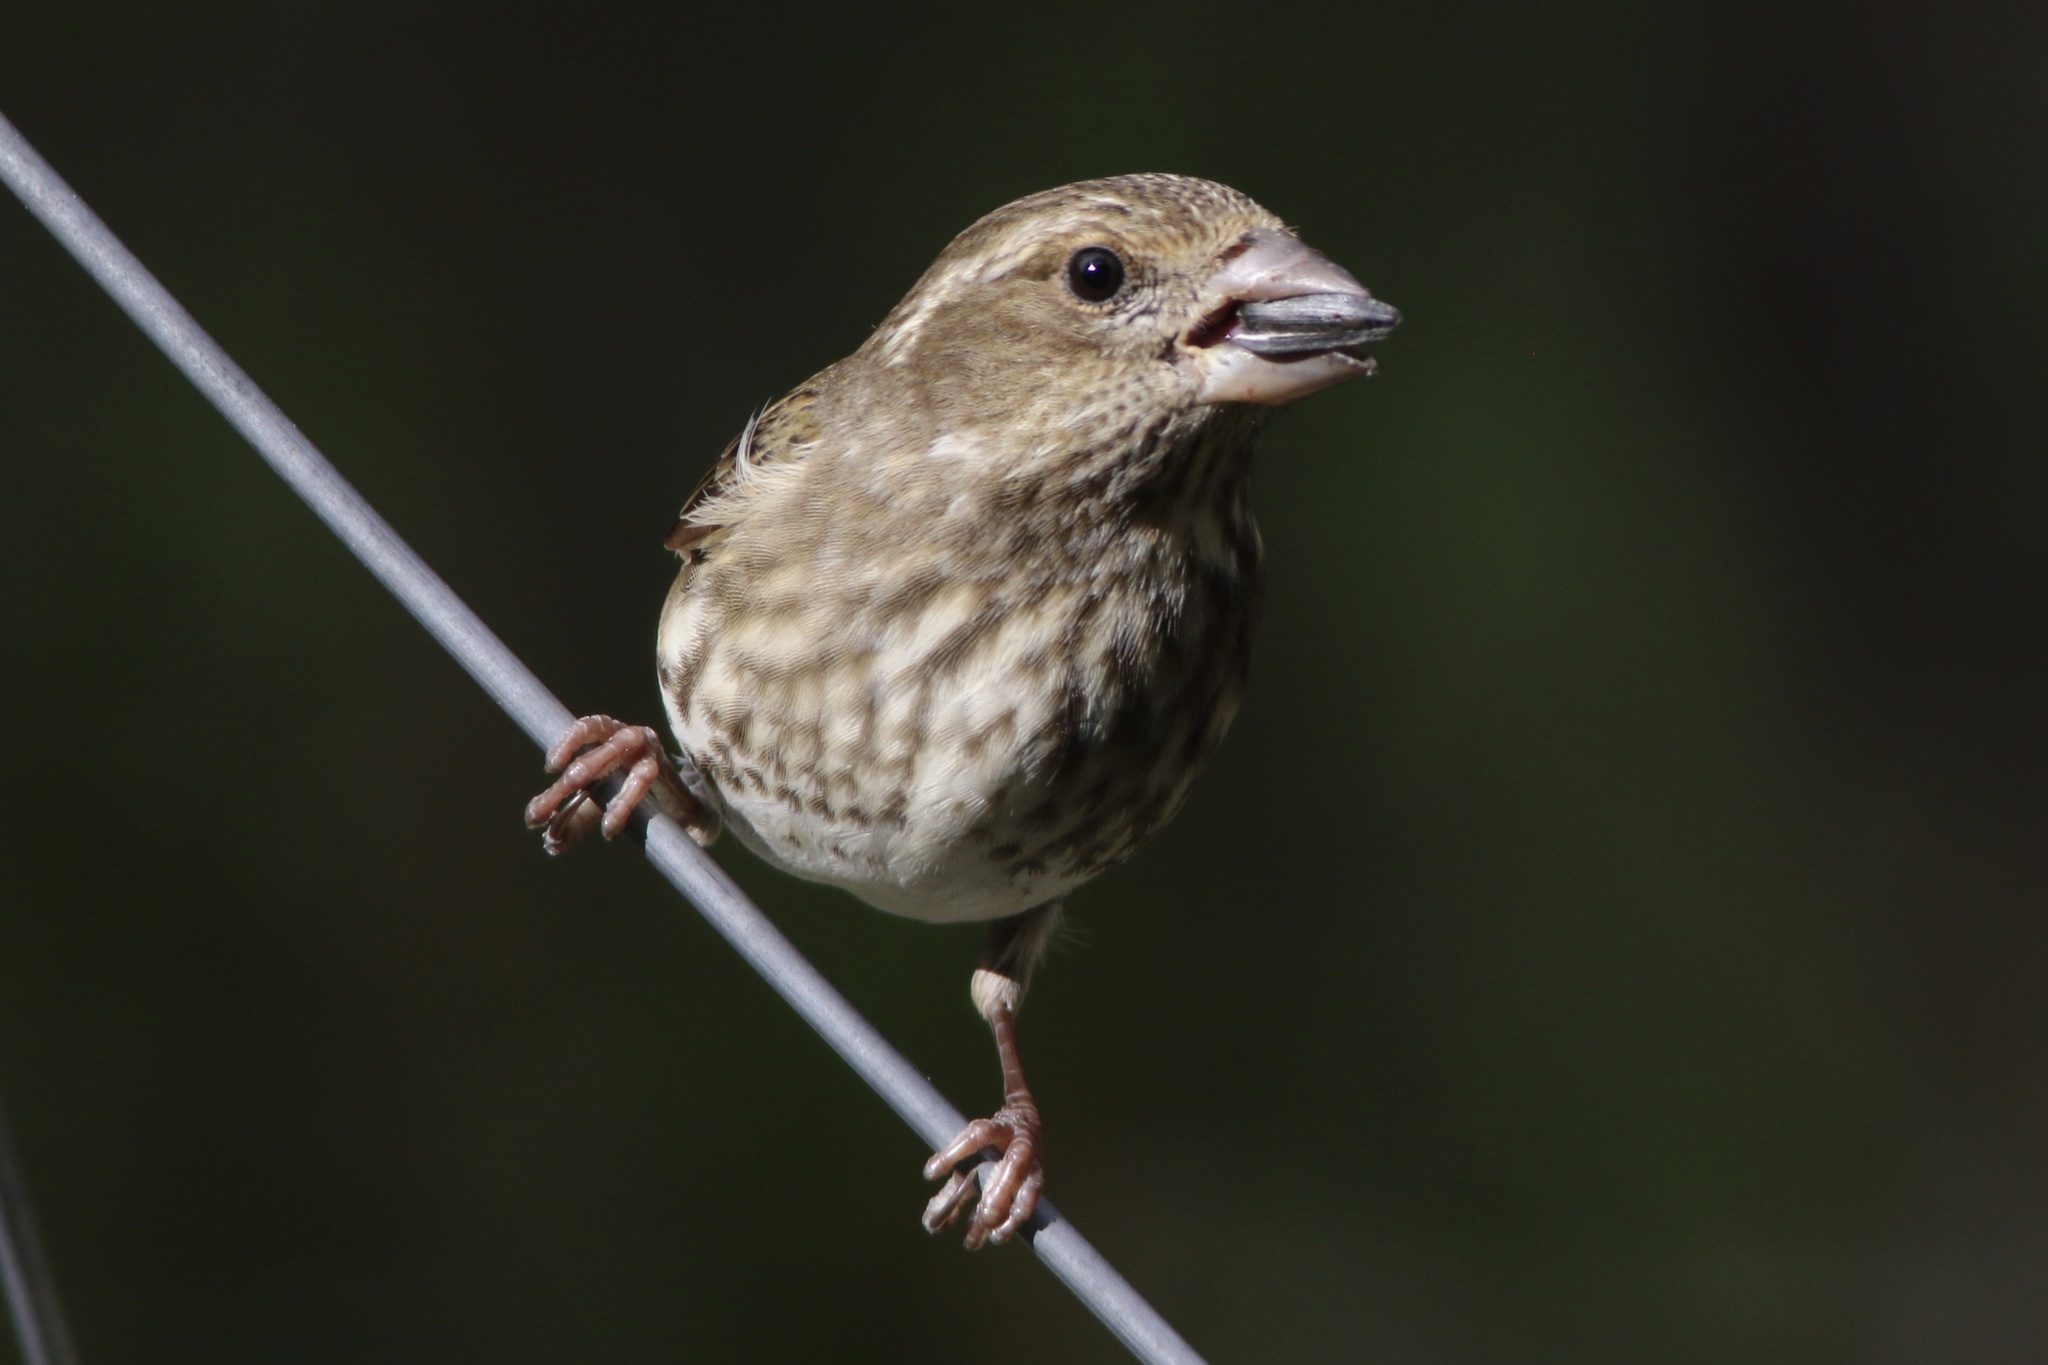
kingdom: Animalia
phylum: Chordata
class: Aves
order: Passeriformes
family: Fringillidae
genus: Haemorhous
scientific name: Haemorhous purpureus
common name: Purple finch
